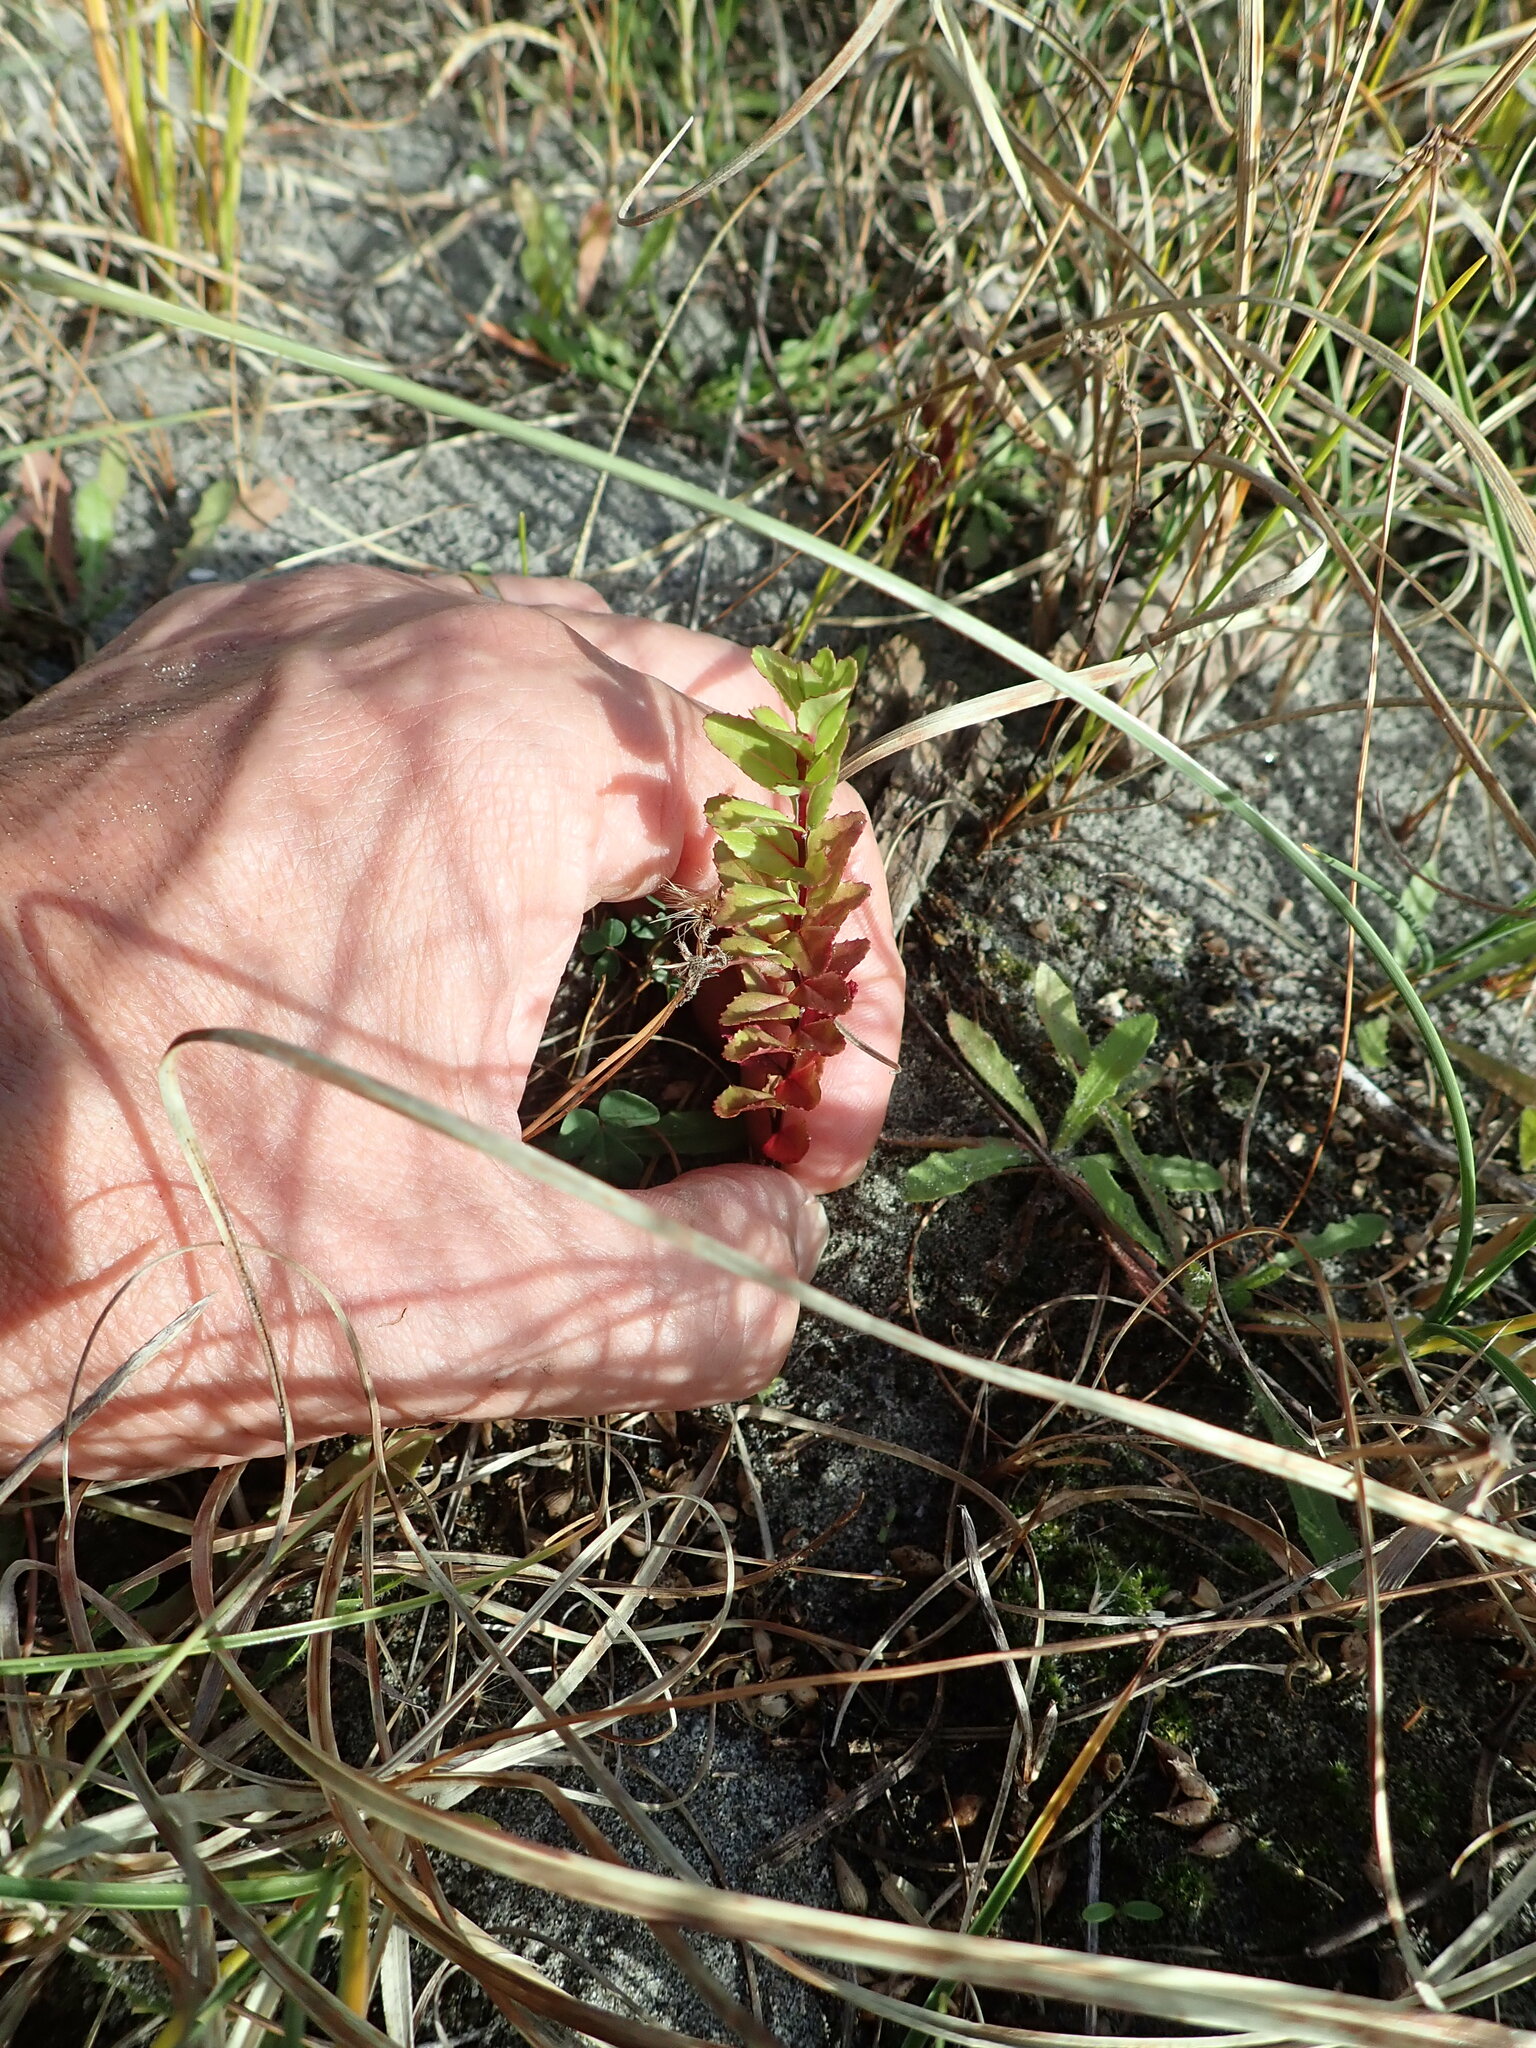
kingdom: Plantae
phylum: Tracheophyta
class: Magnoliopsida
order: Myrtales
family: Onagraceae
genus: Epilobium
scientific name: Epilobium billardiereanum
